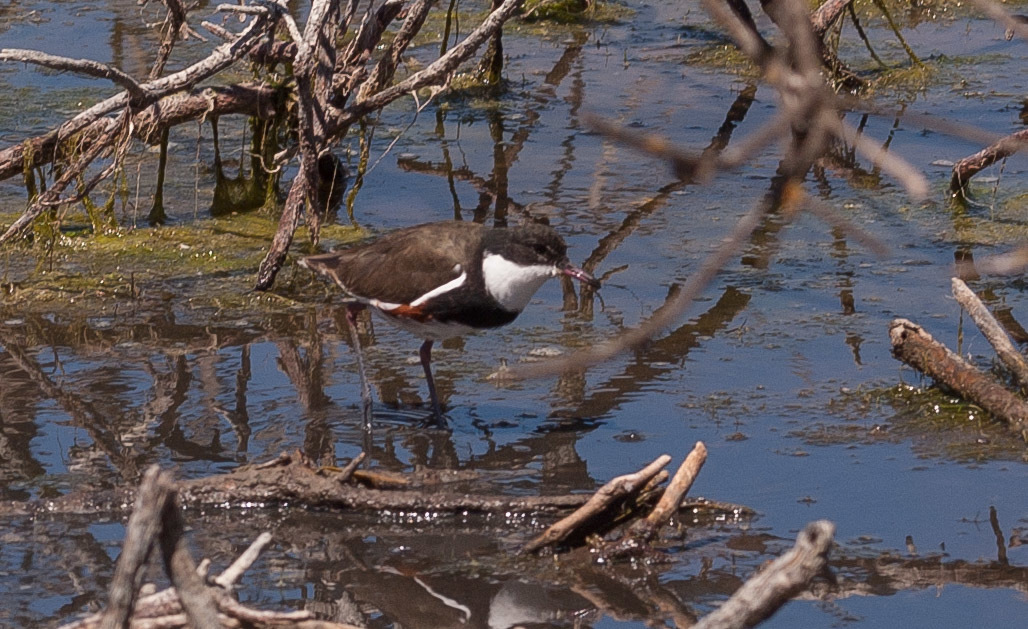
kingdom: Animalia
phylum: Chordata
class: Aves
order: Charadriiformes
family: Charadriidae
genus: Erythrogonys
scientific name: Erythrogonys cinctus
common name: Red-kneed dotterel
